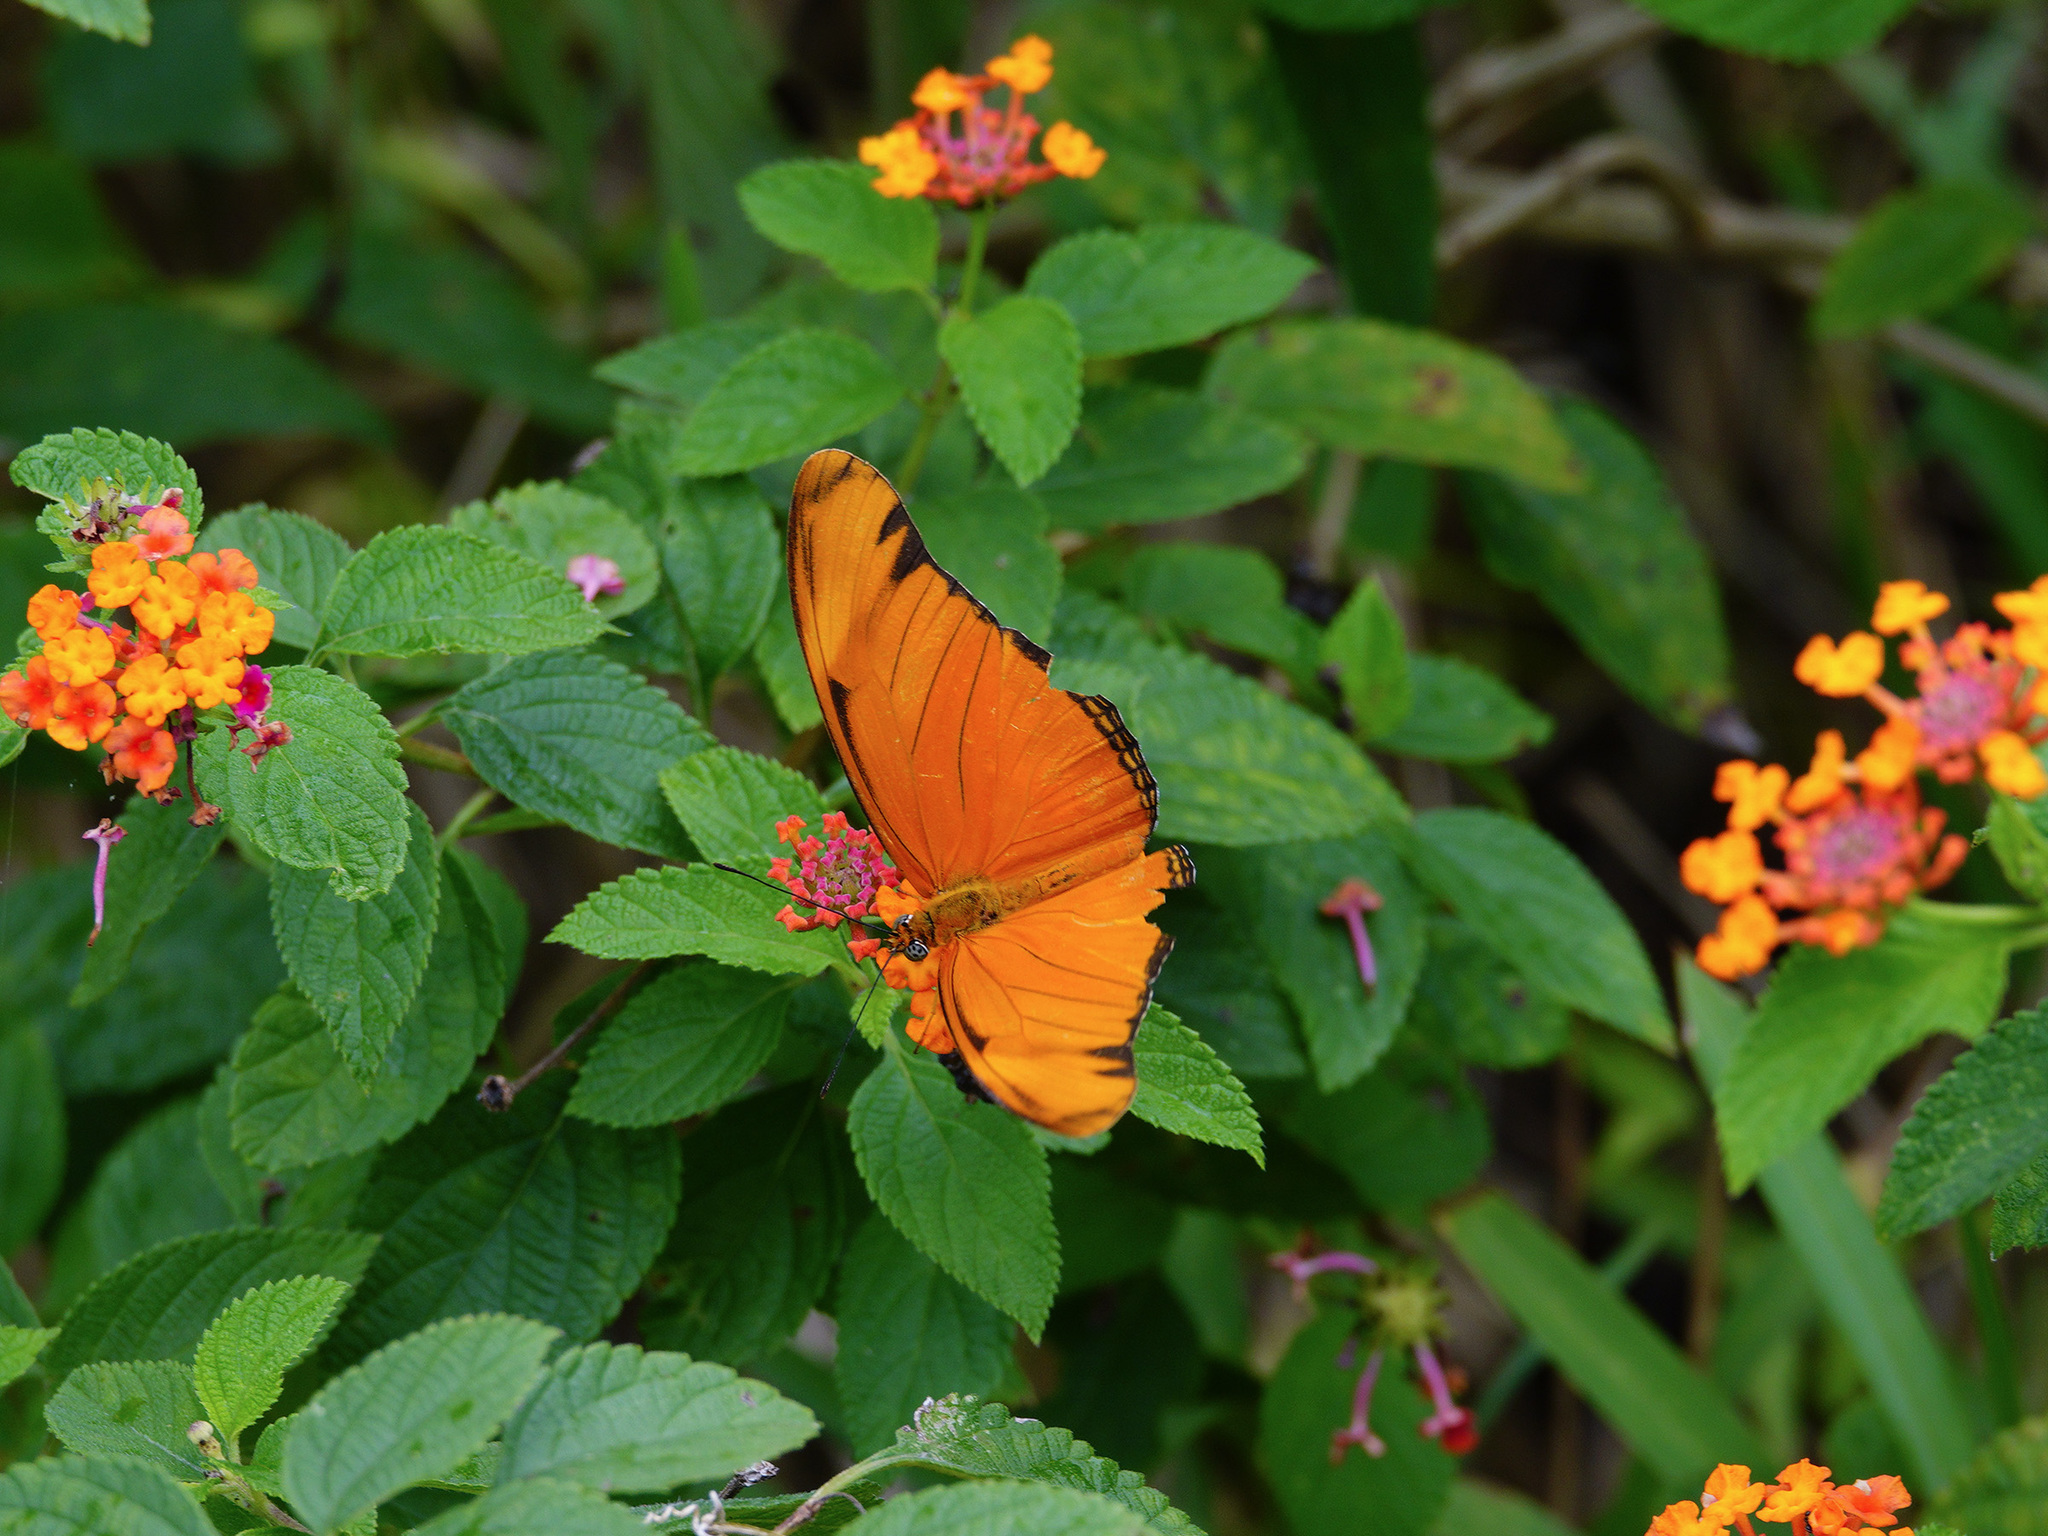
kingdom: Animalia
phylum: Arthropoda
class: Insecta
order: Lepidoptera
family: Nymphalidae
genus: Dryas
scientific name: Dryas iulia
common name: Flambeau
